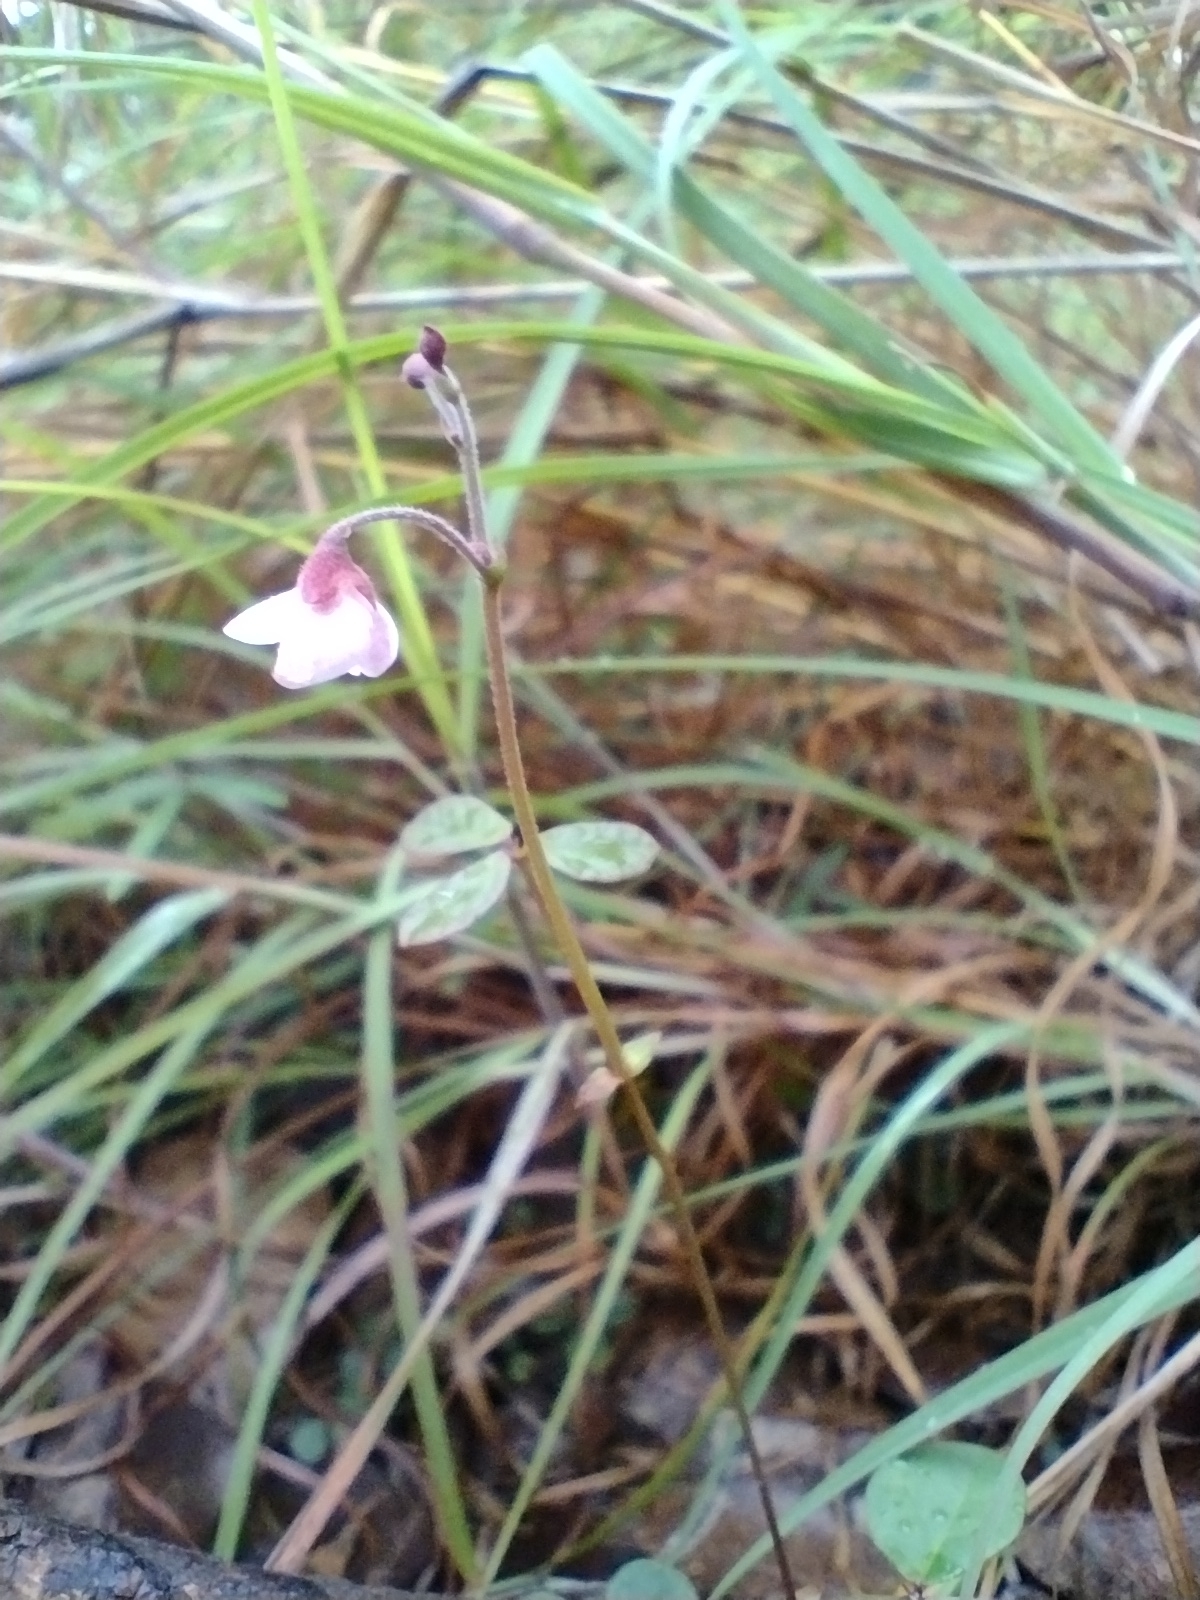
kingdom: Plantae
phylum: Tracheophyta
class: Magnoliopsida
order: Fabales
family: Fabaceae
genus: Pullenia
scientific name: Pullenia gunnii
